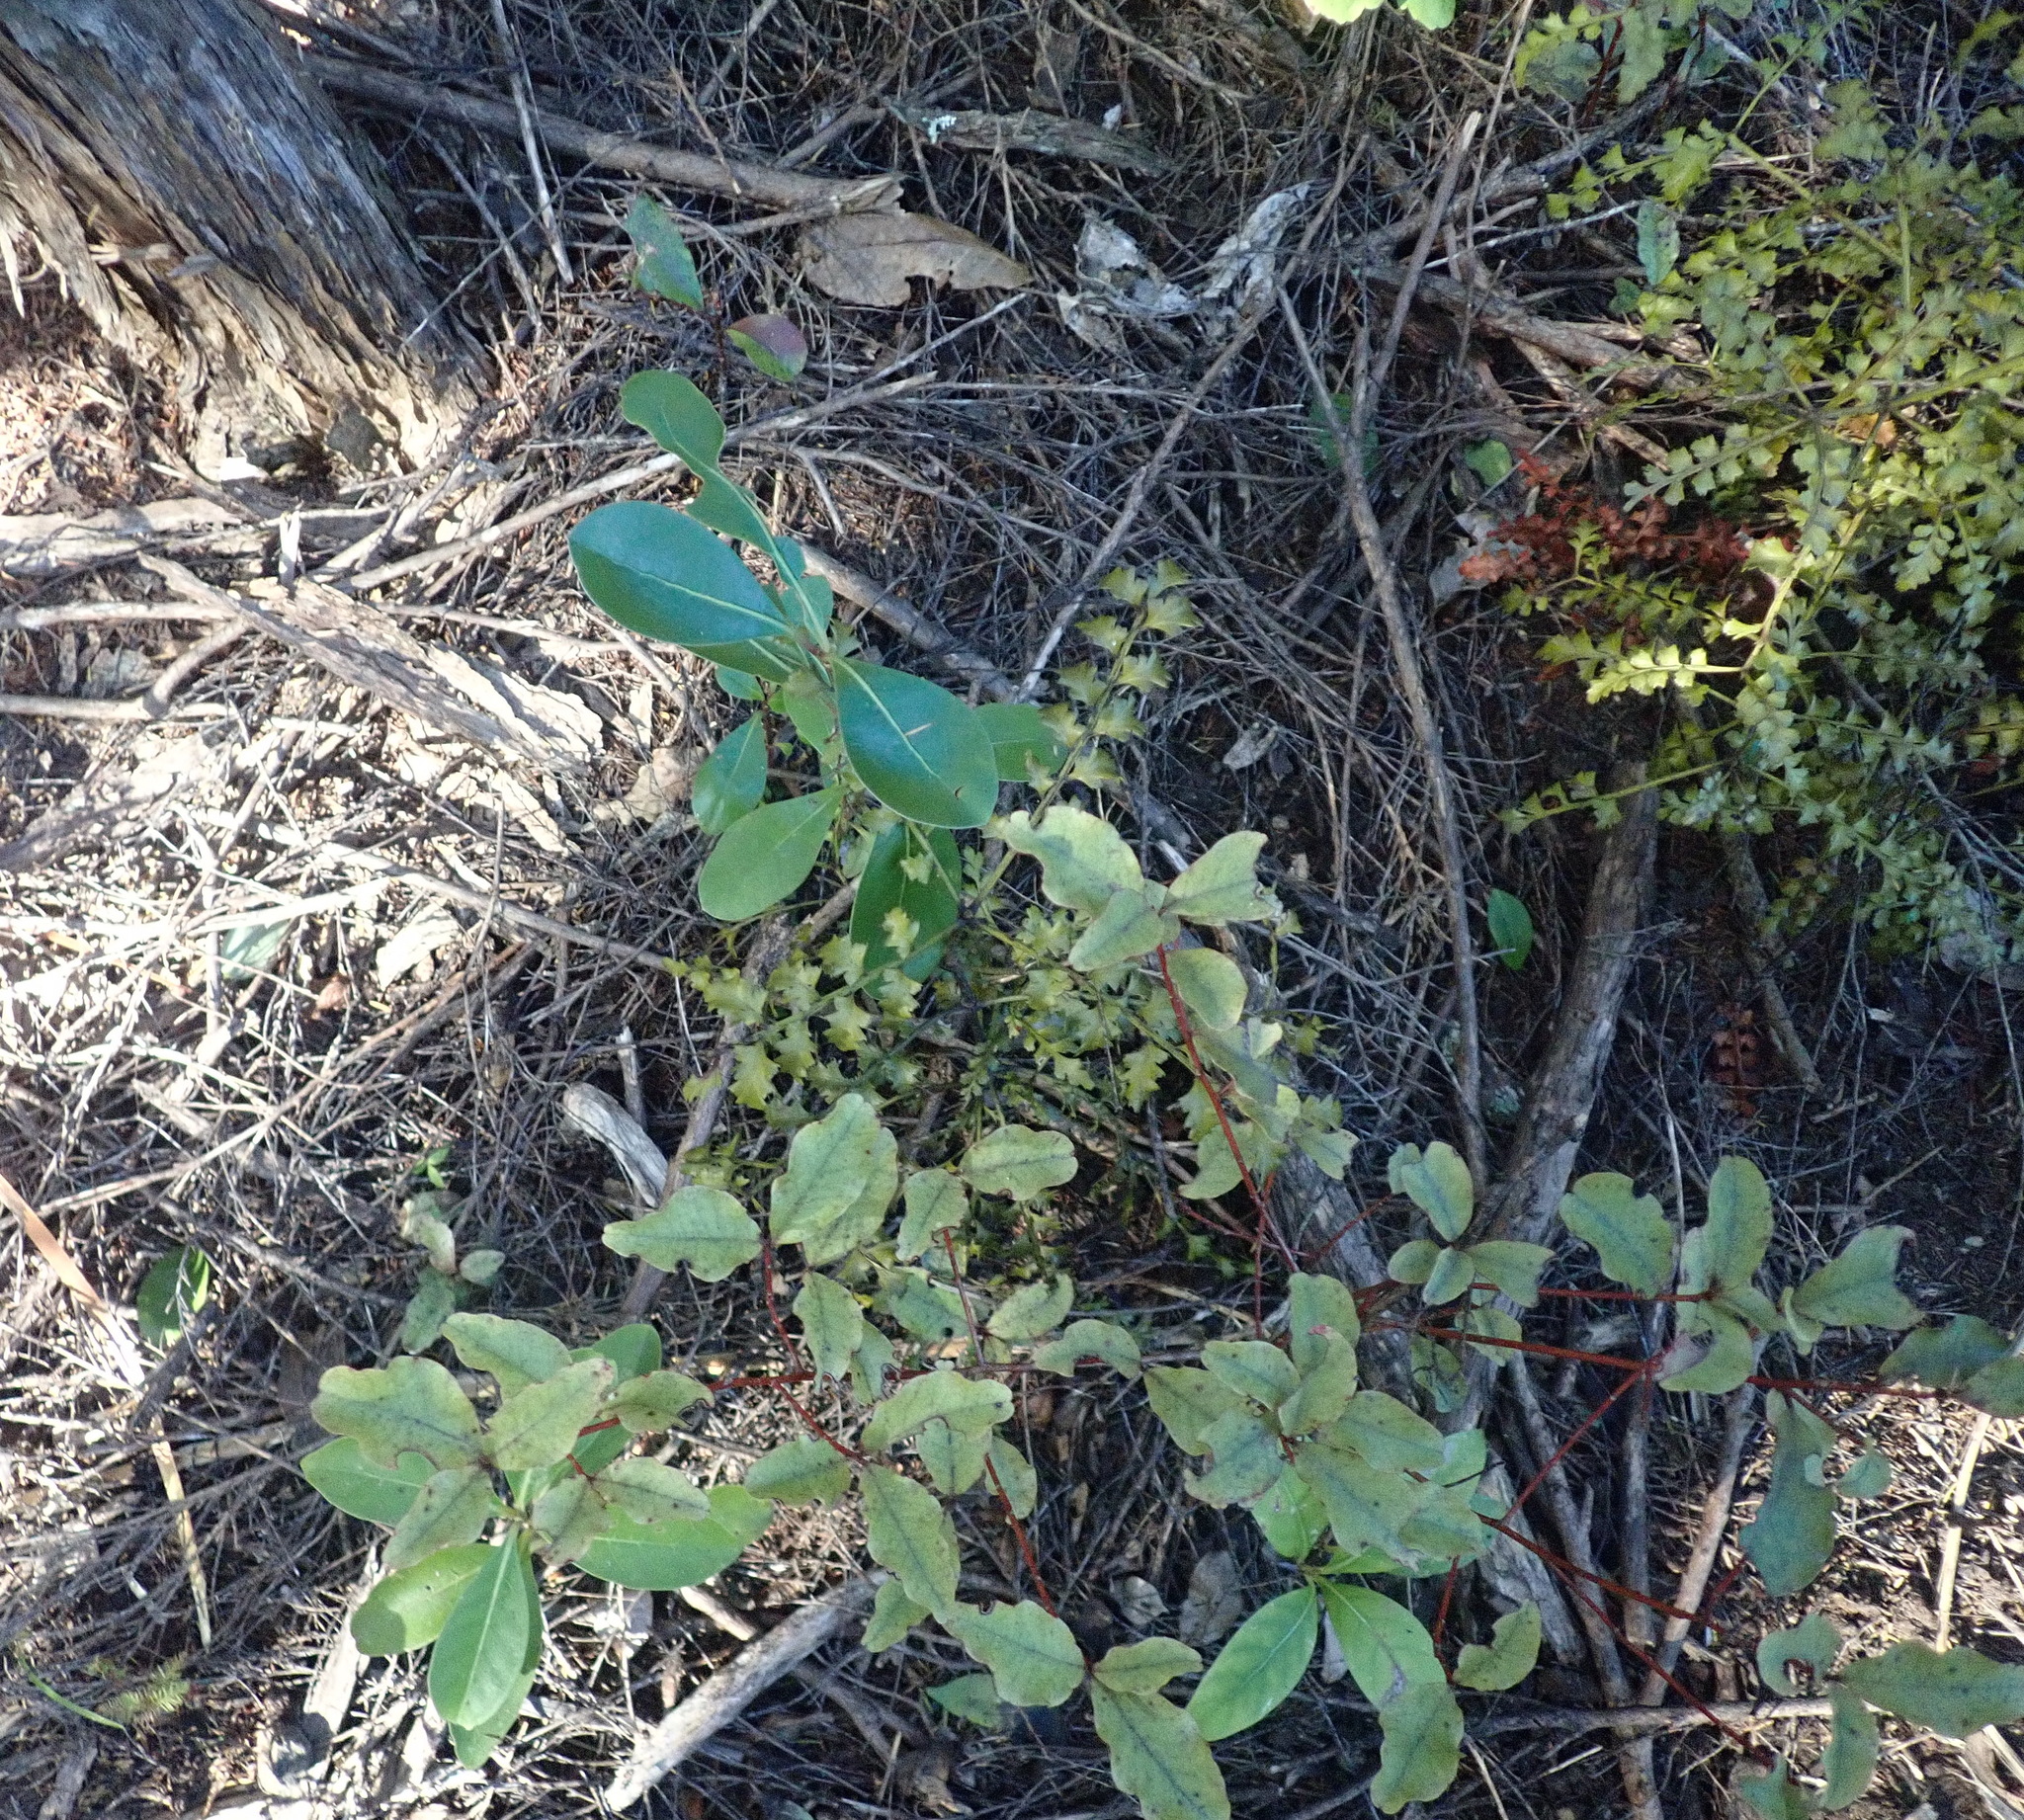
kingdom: Plantae
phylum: Tracheophyta
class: Magnoliopsida
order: Ericales
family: Primulaceae
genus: Myrsine
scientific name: Myrsine australis
